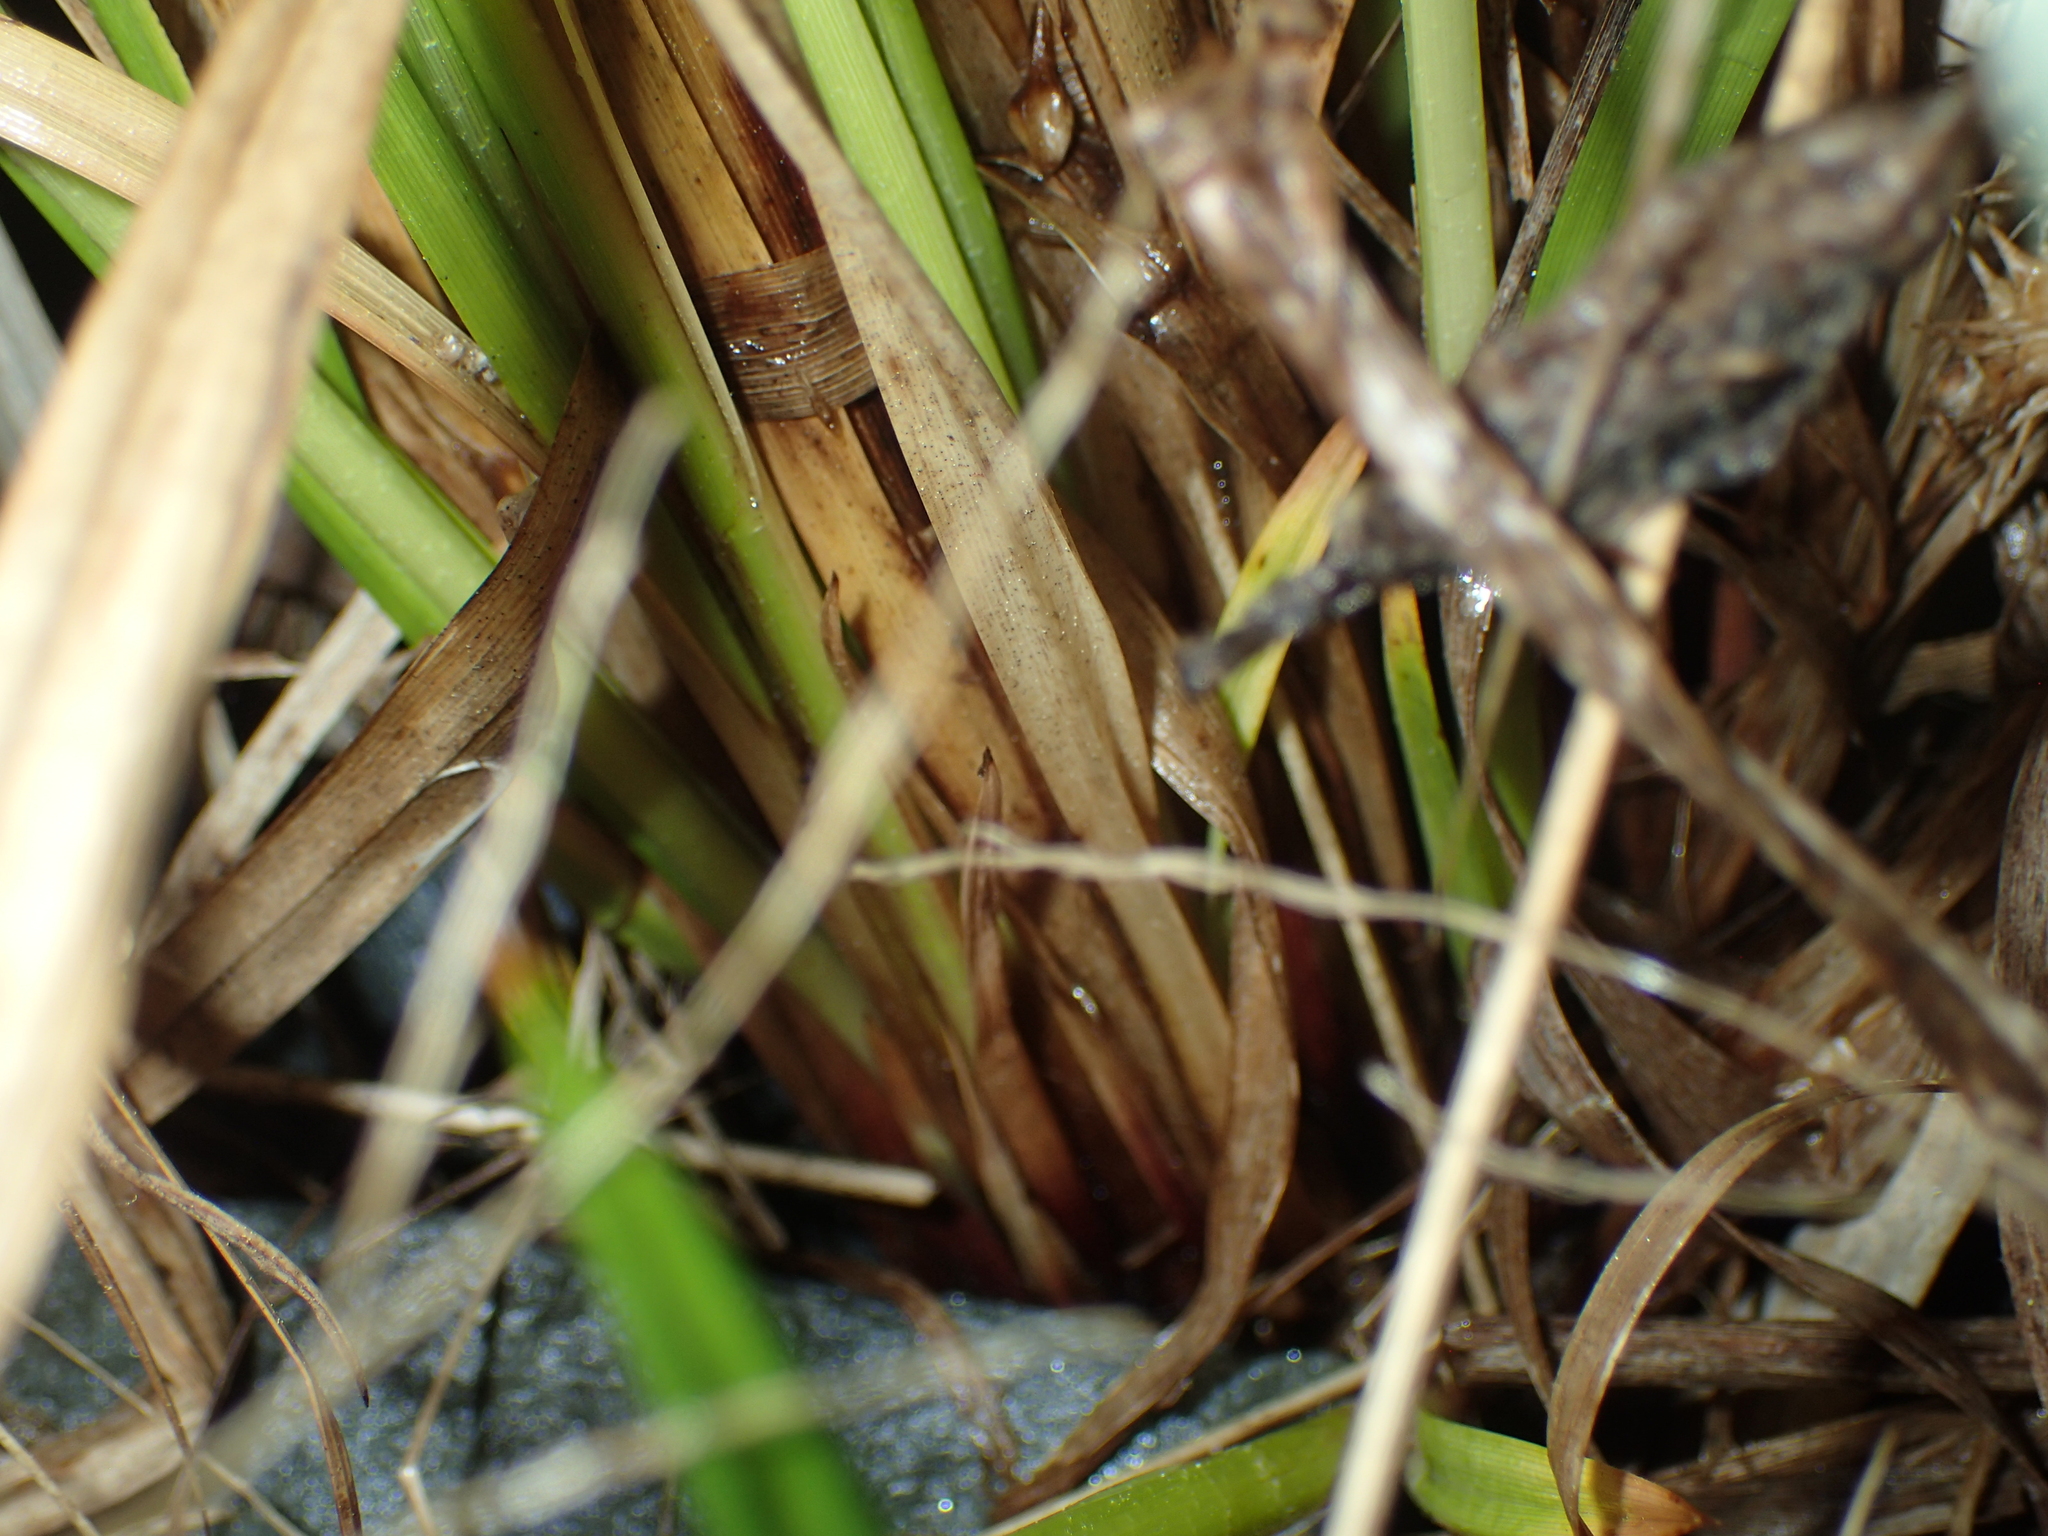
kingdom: Plantae
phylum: Tracheophyta
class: Liliopsida
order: Poales
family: Cyperaceae
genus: Carex
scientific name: Carex lurida
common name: Sallow sedge
